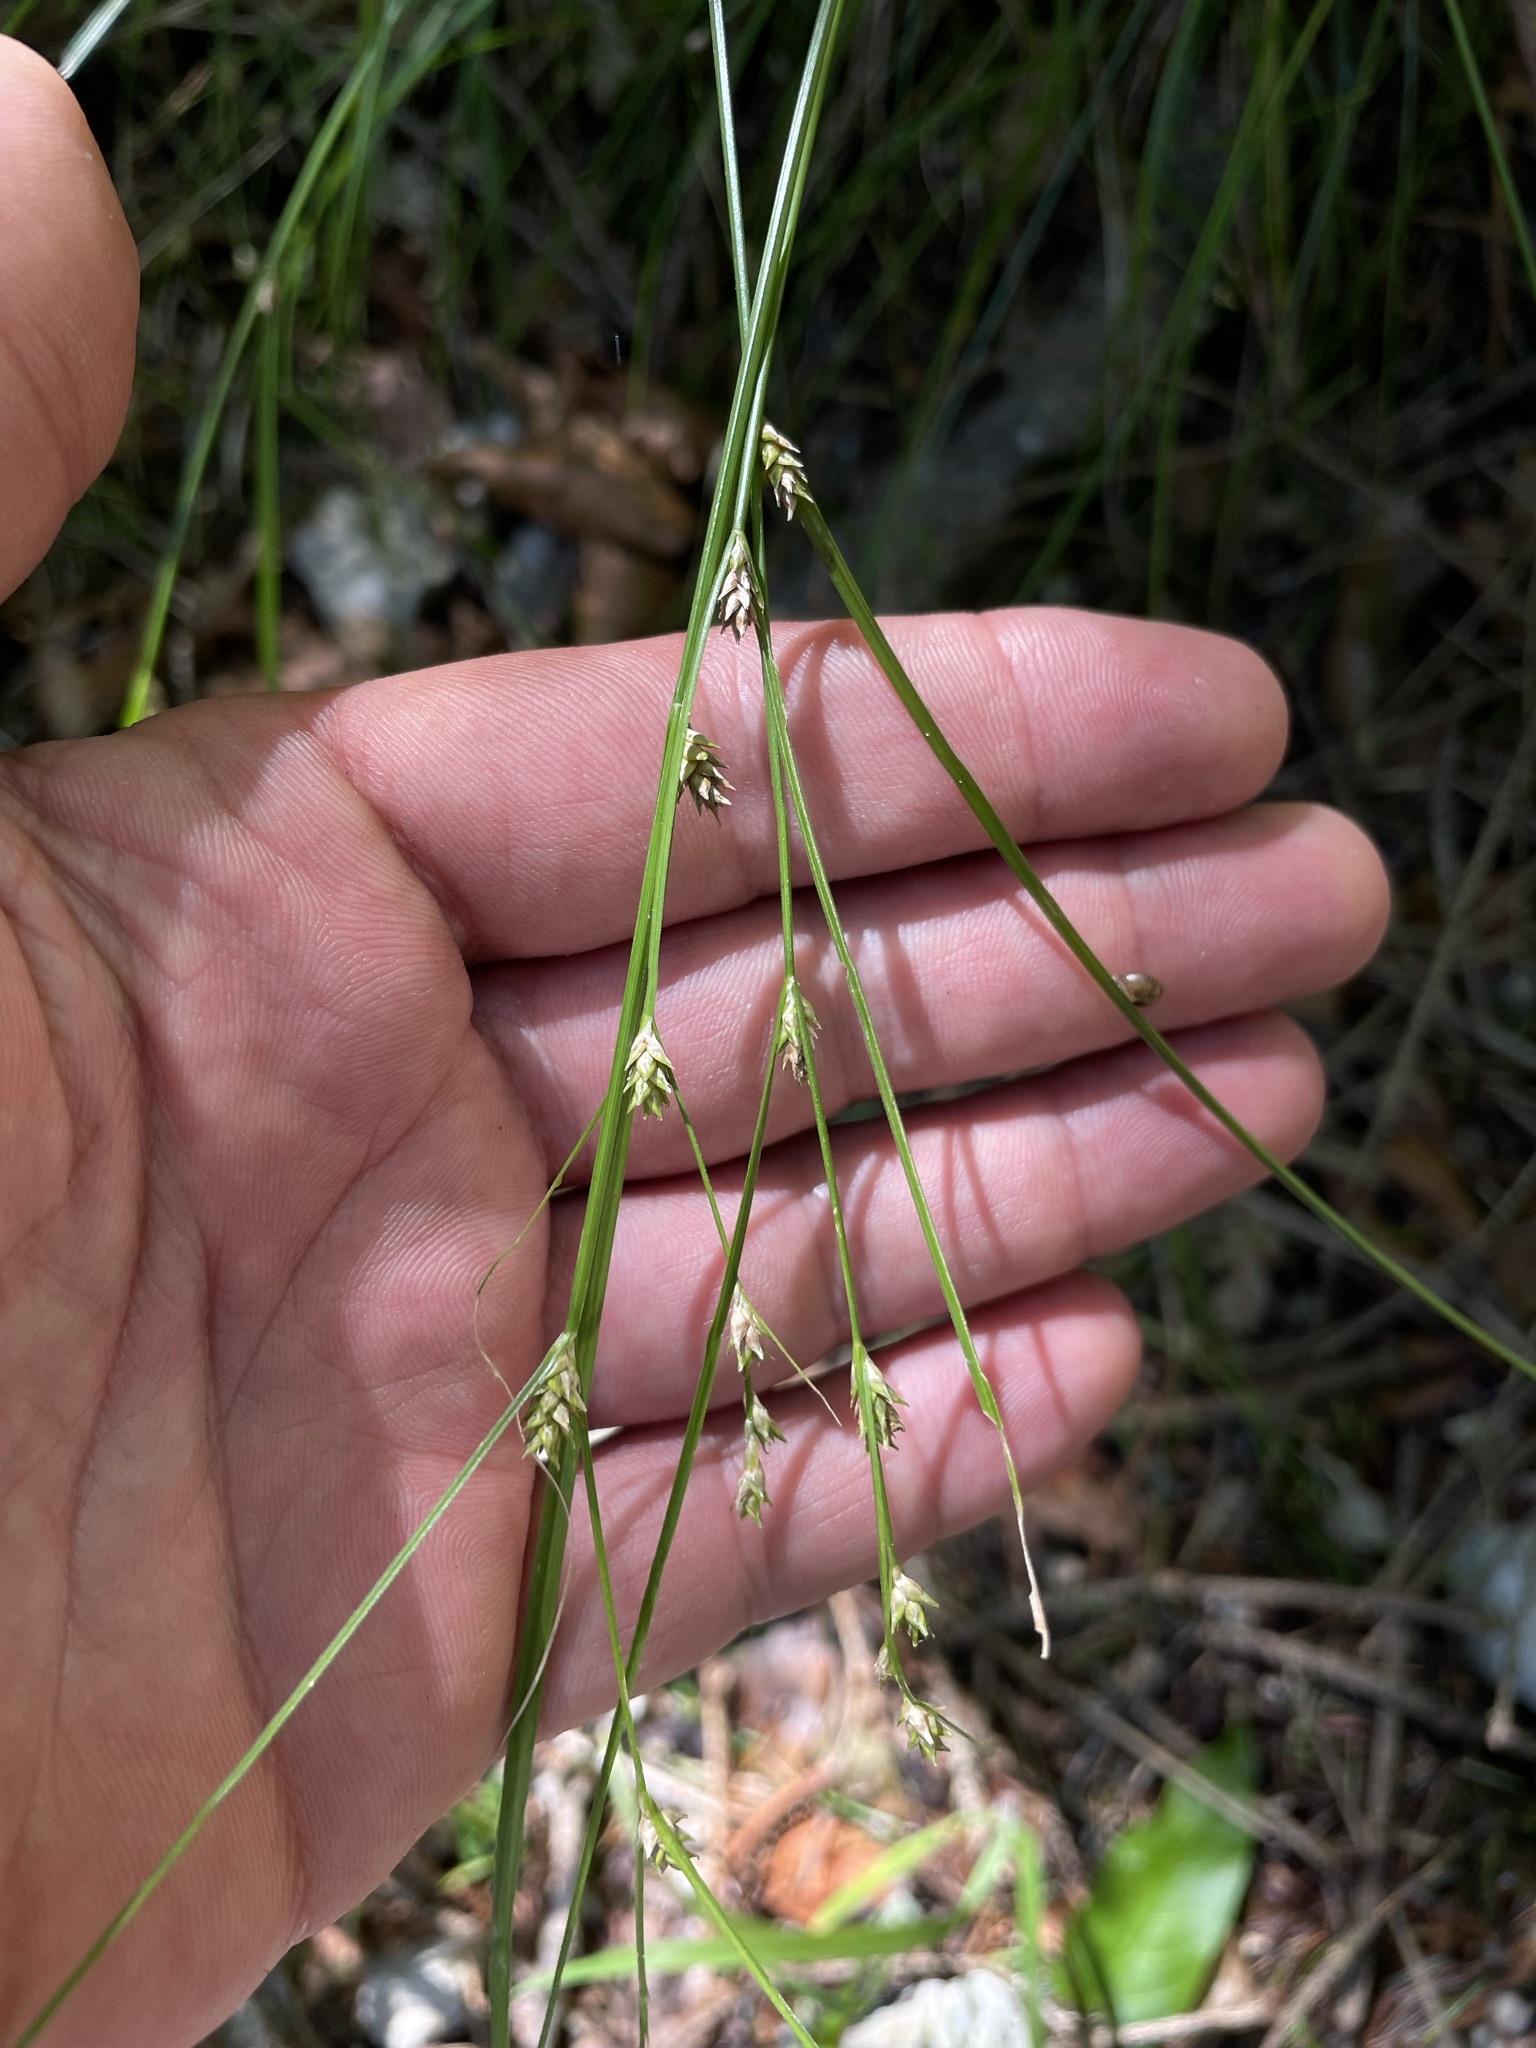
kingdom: Plantae
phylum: Tracheophyta
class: Liliopsida
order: Poales
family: Cyperaceae
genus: Carex
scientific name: Carex remota
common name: Remote sedge
